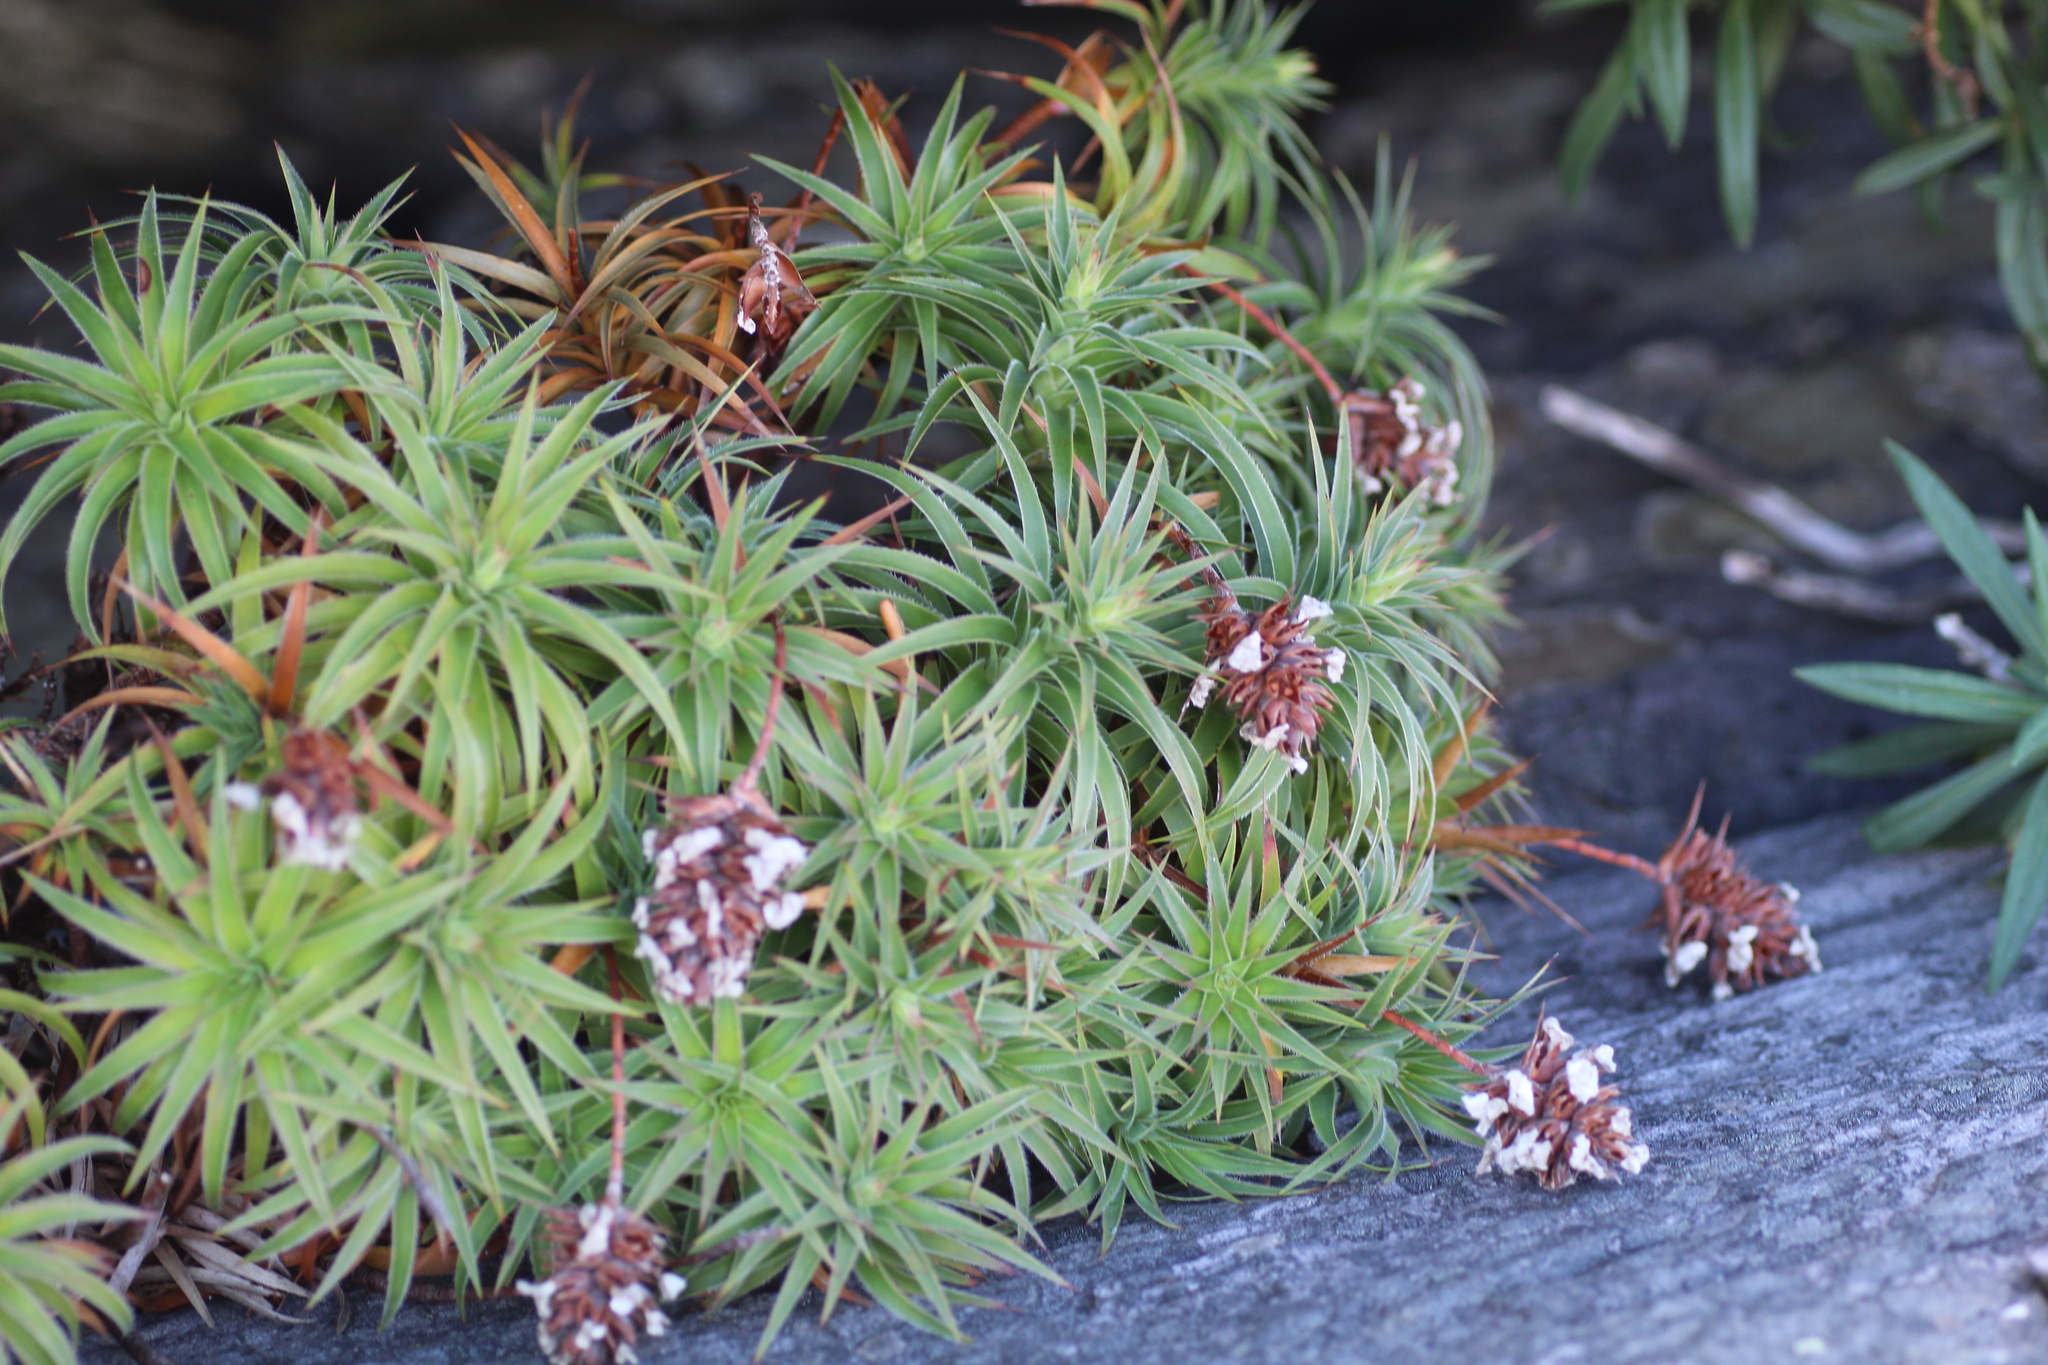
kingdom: Plantae
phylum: Tracheophyta
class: Magnoliopsida
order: Ericales
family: Ericaceae
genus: Sphenotoma
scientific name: Sphenotoma drummondii
